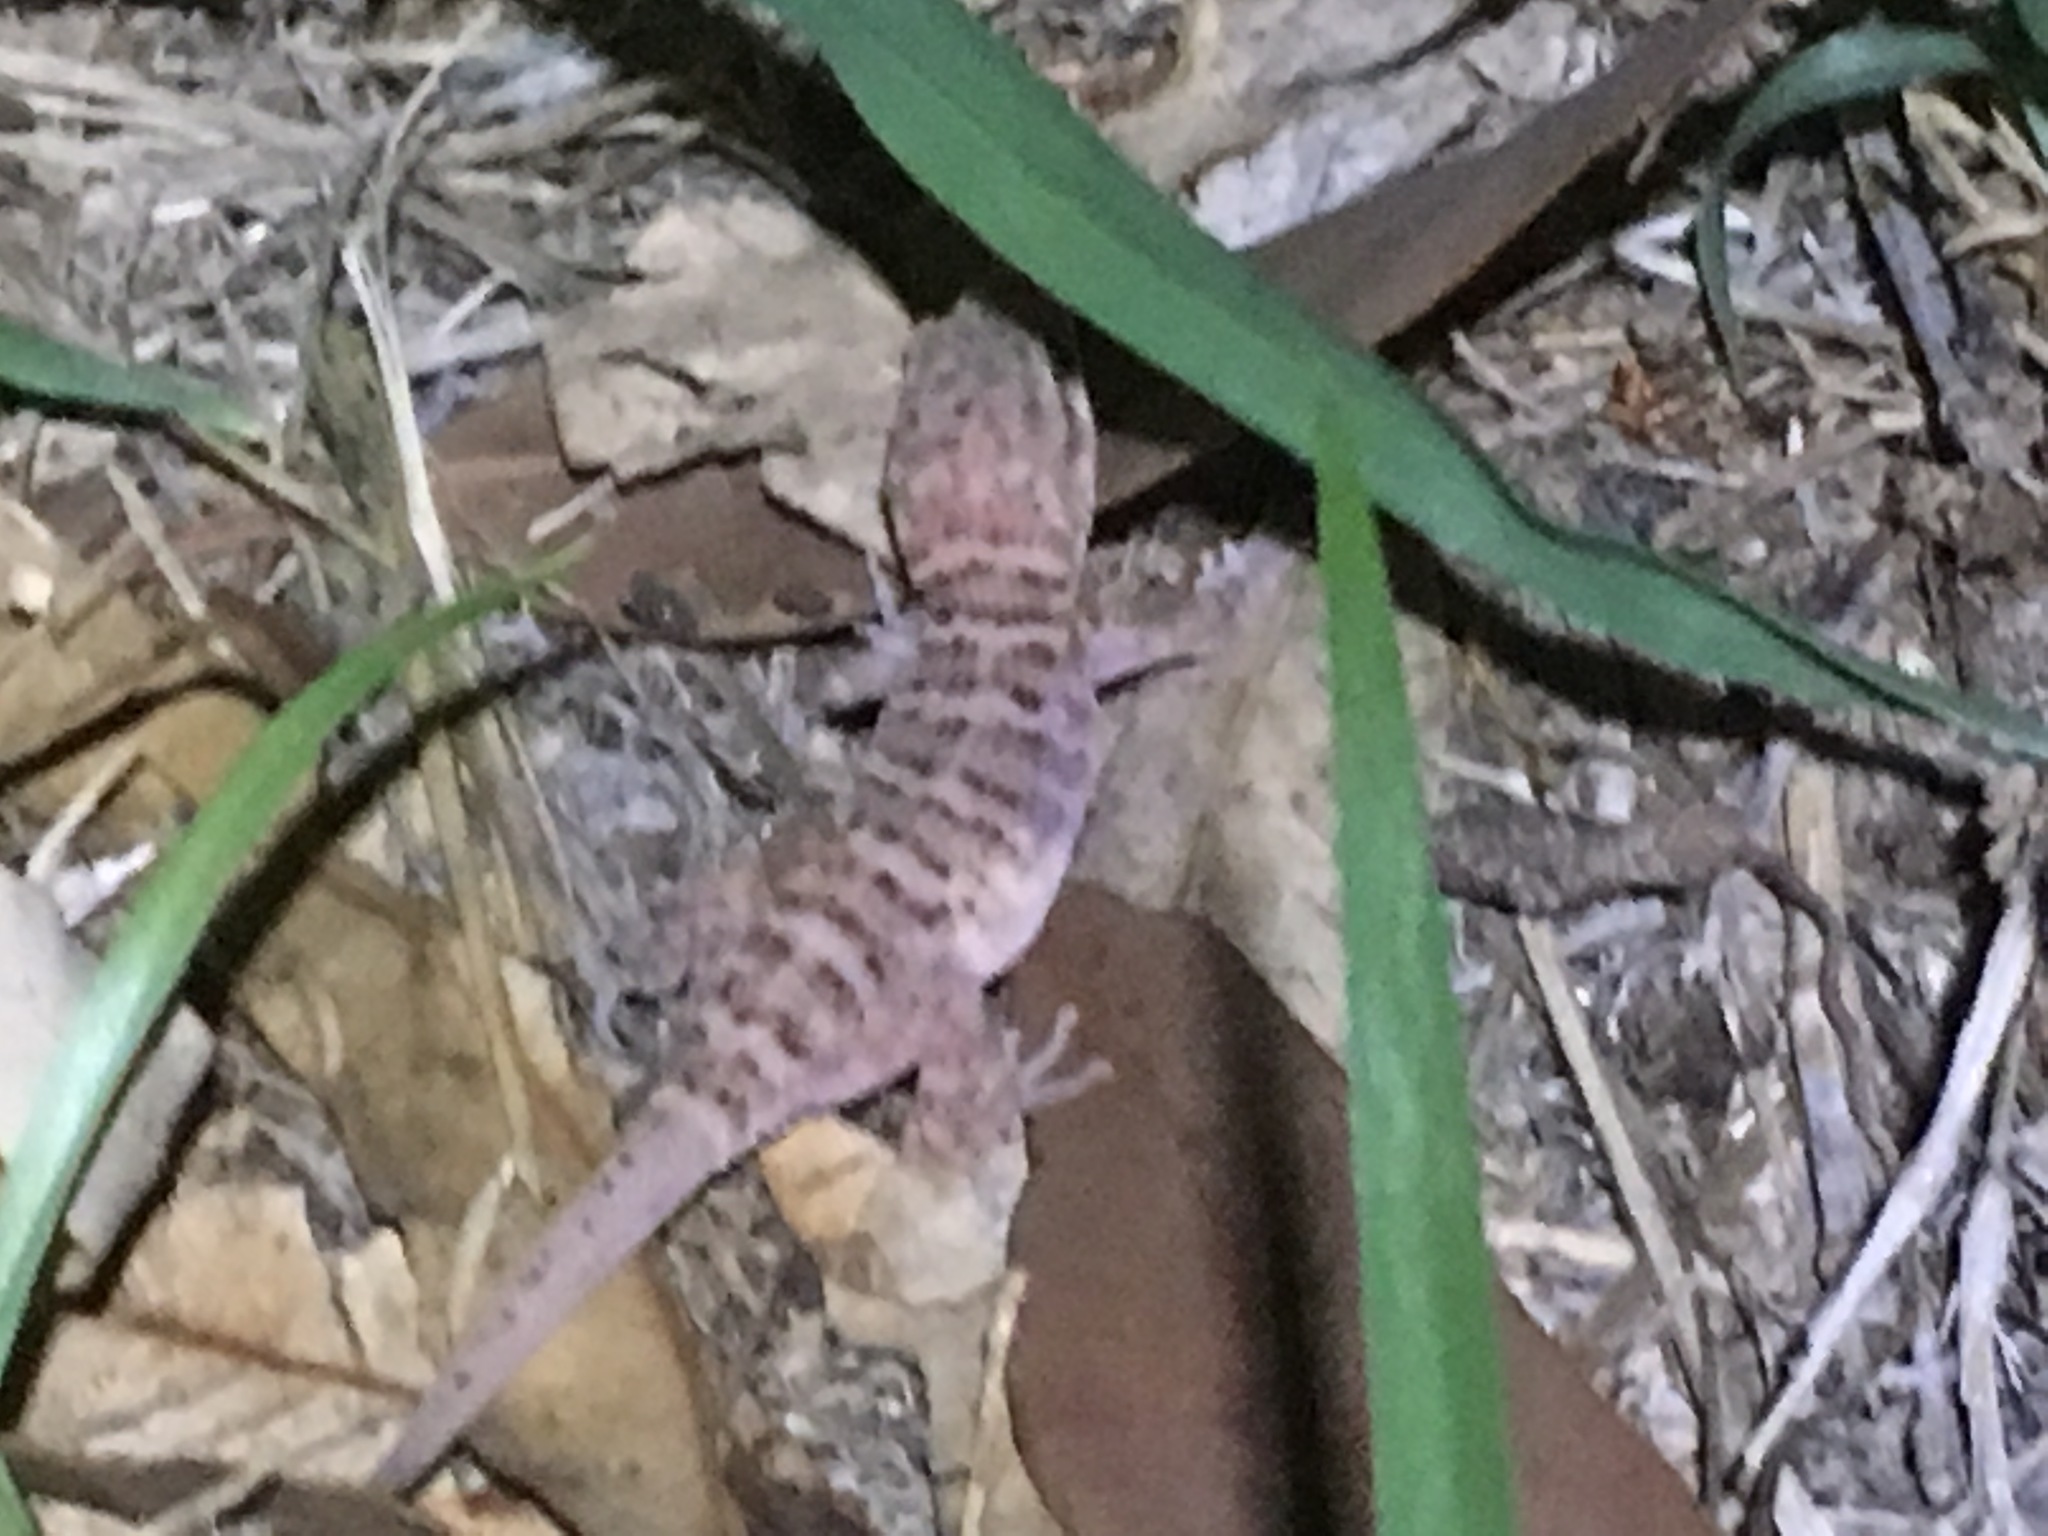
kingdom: Animalia
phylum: Chordata
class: Squamata
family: Gekkonidae
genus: Heteronotia
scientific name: Heteronotia binoei
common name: Bynoe's gecko
